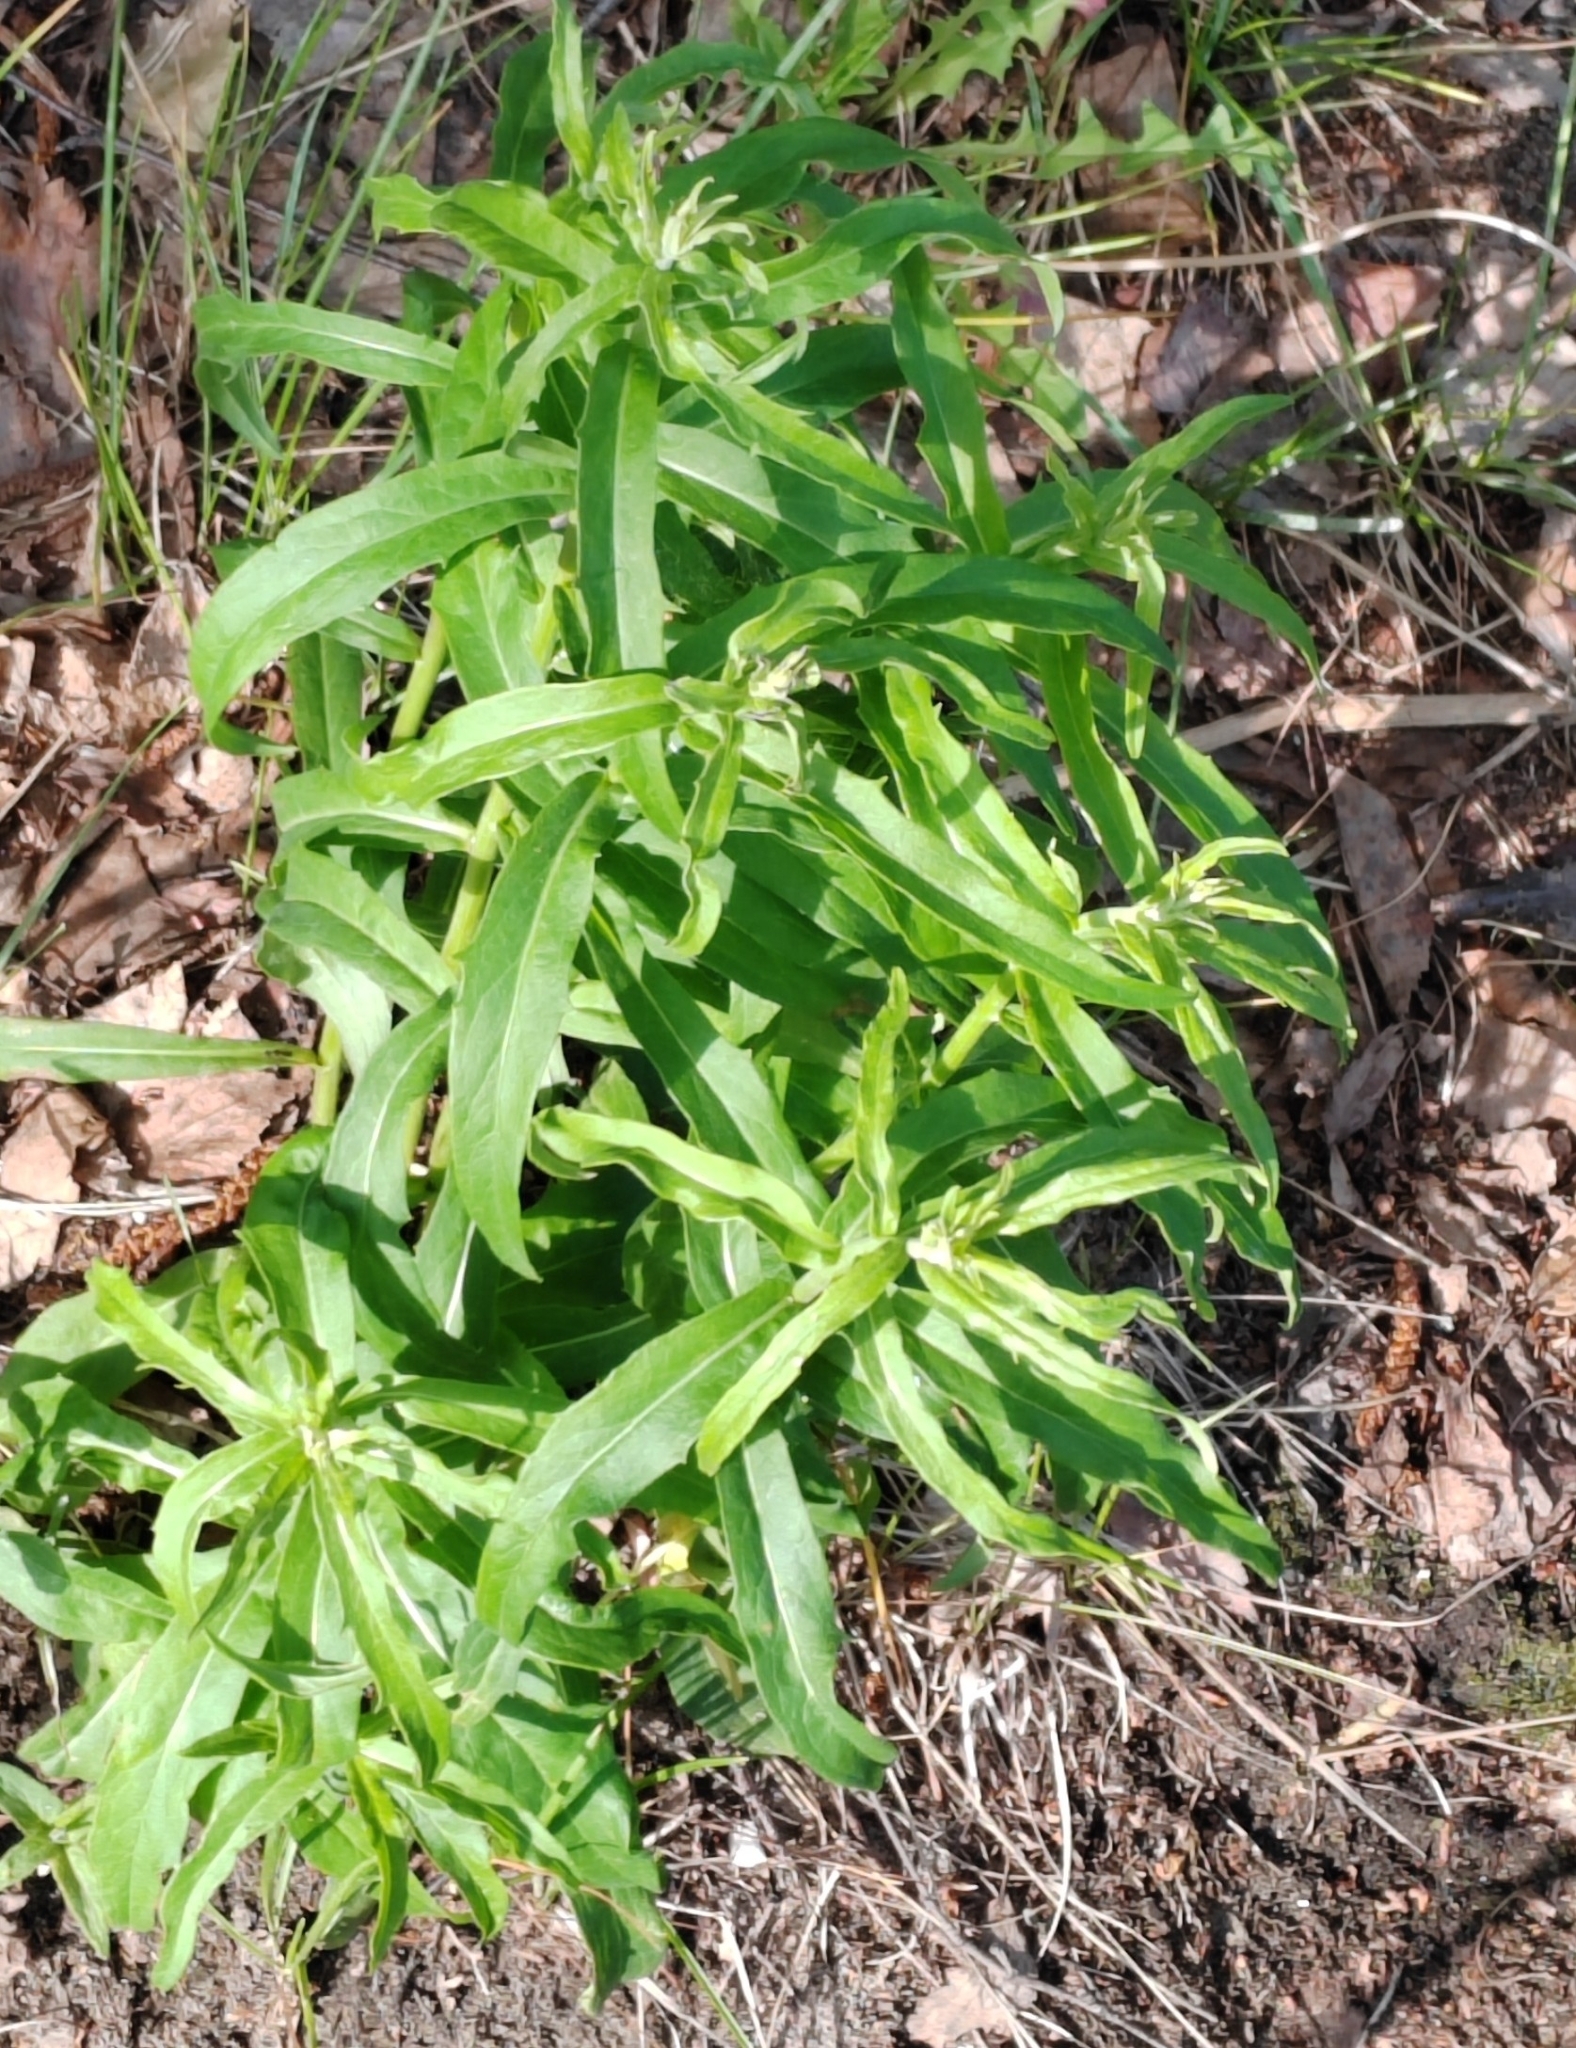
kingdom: Plantae
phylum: Tracheophyta
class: Magnoliopsida
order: Asterales
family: Asteraceae
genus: Hieracium
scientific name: Hieracium umbellatum
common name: Northern hawkweed
